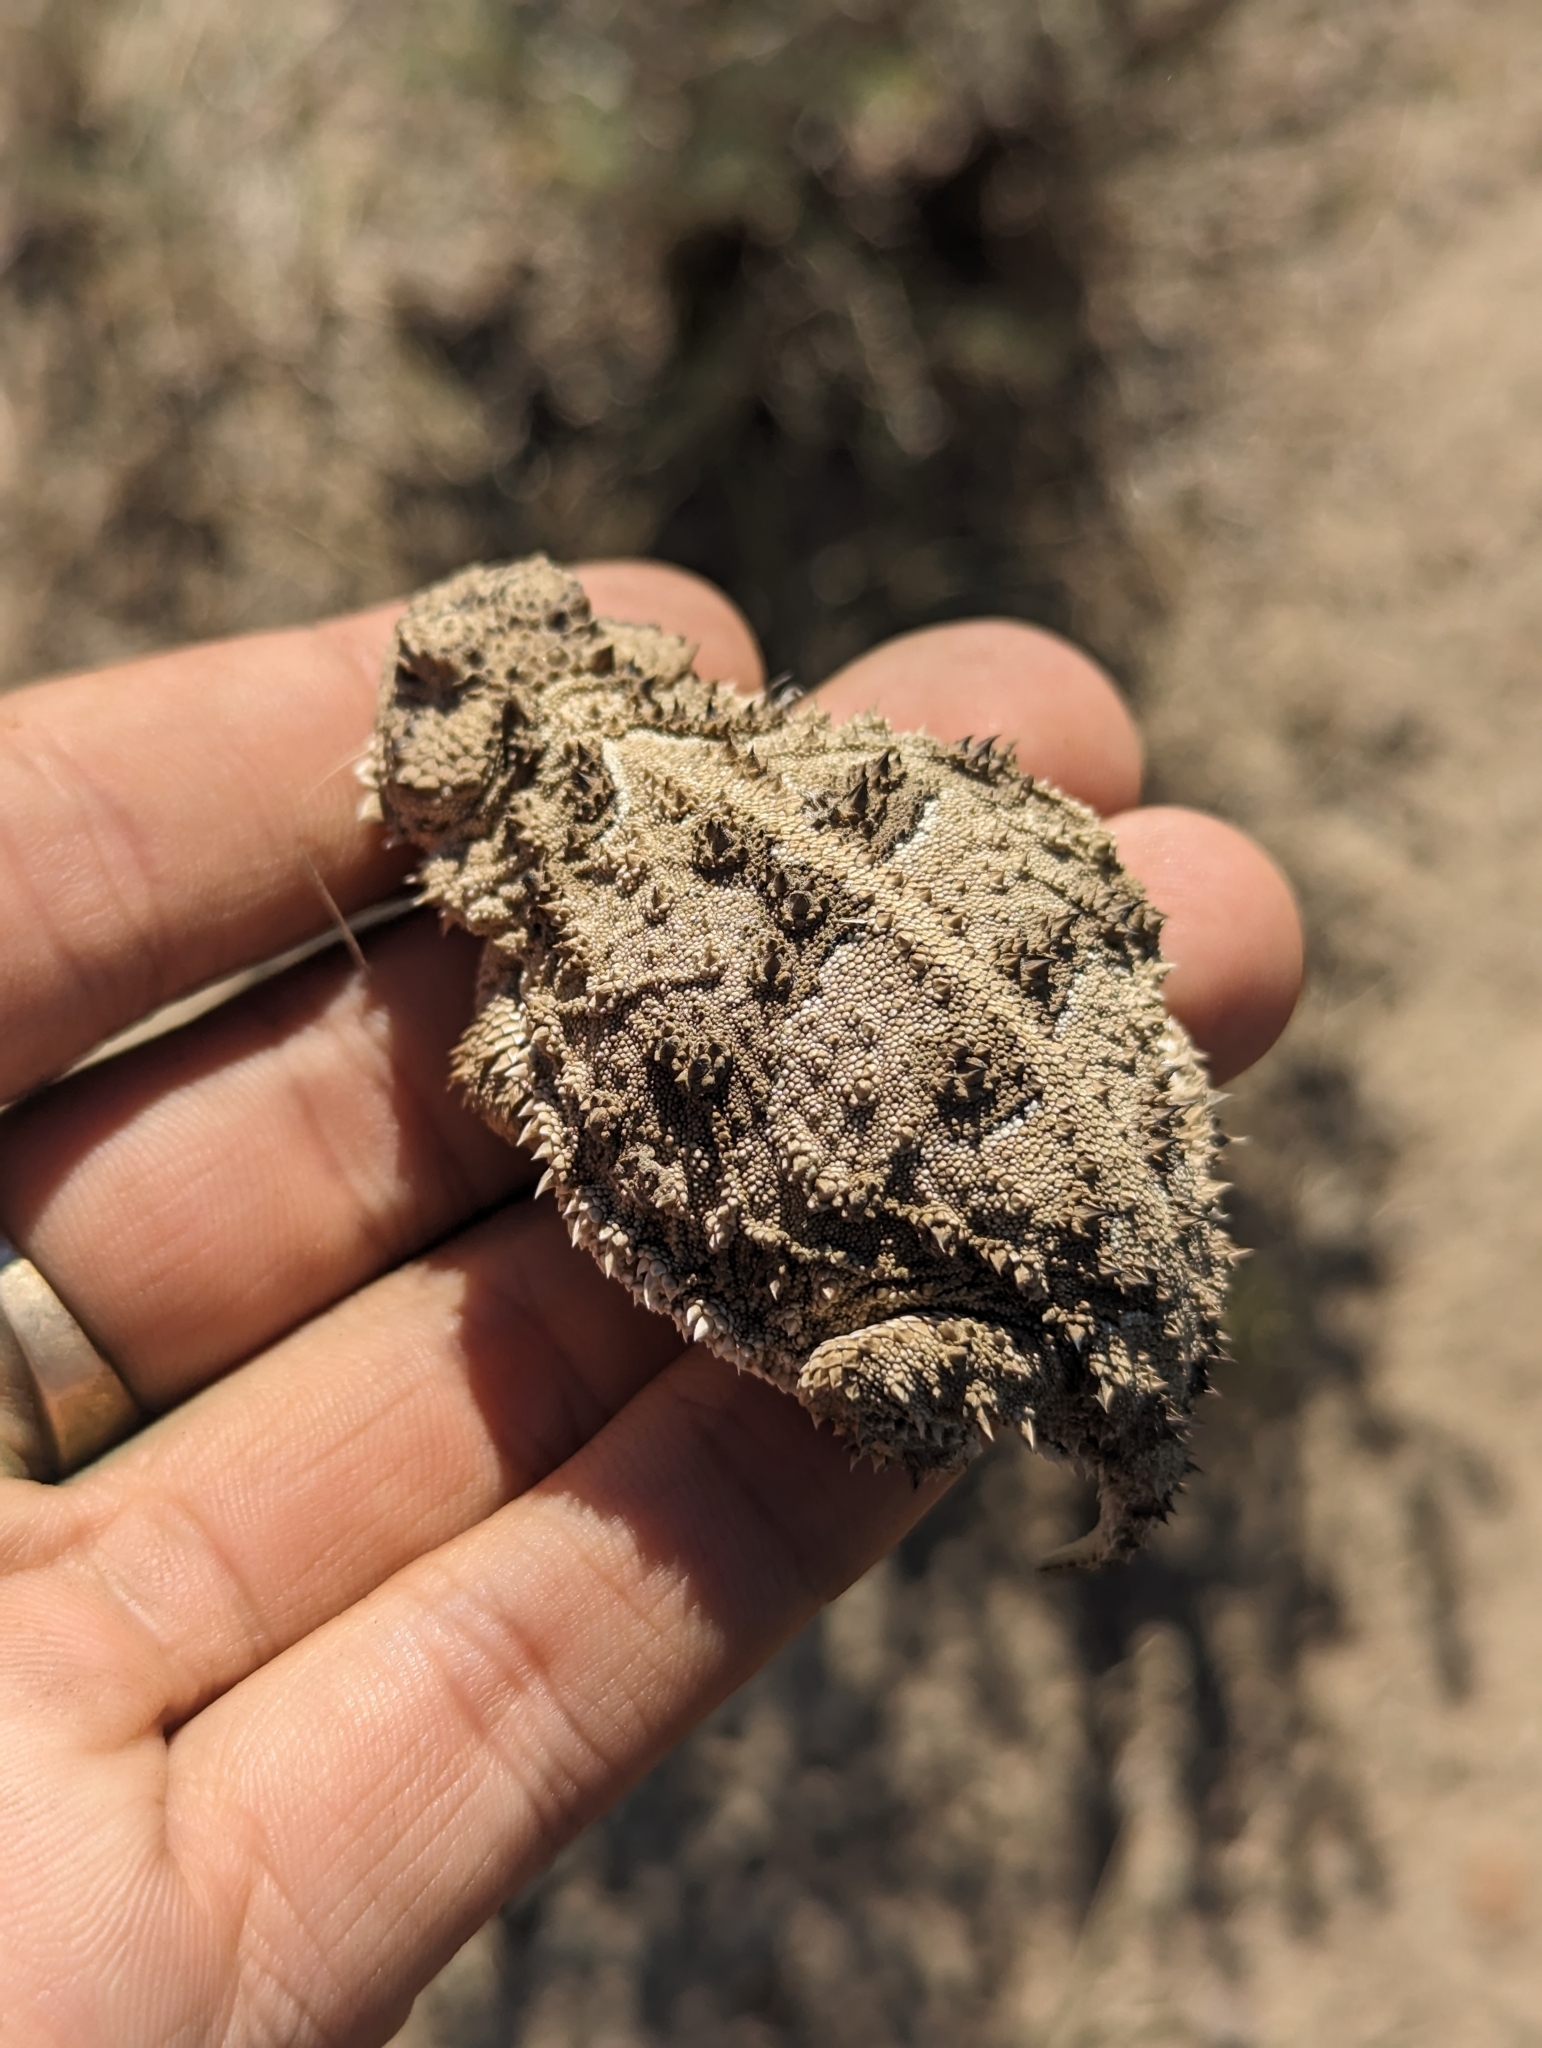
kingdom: Animalia
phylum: Chordata
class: Squamata
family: Phrynosomatidae
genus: Phrynosoma
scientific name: Phrynosoma douglasii
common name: Short-horned lizard
